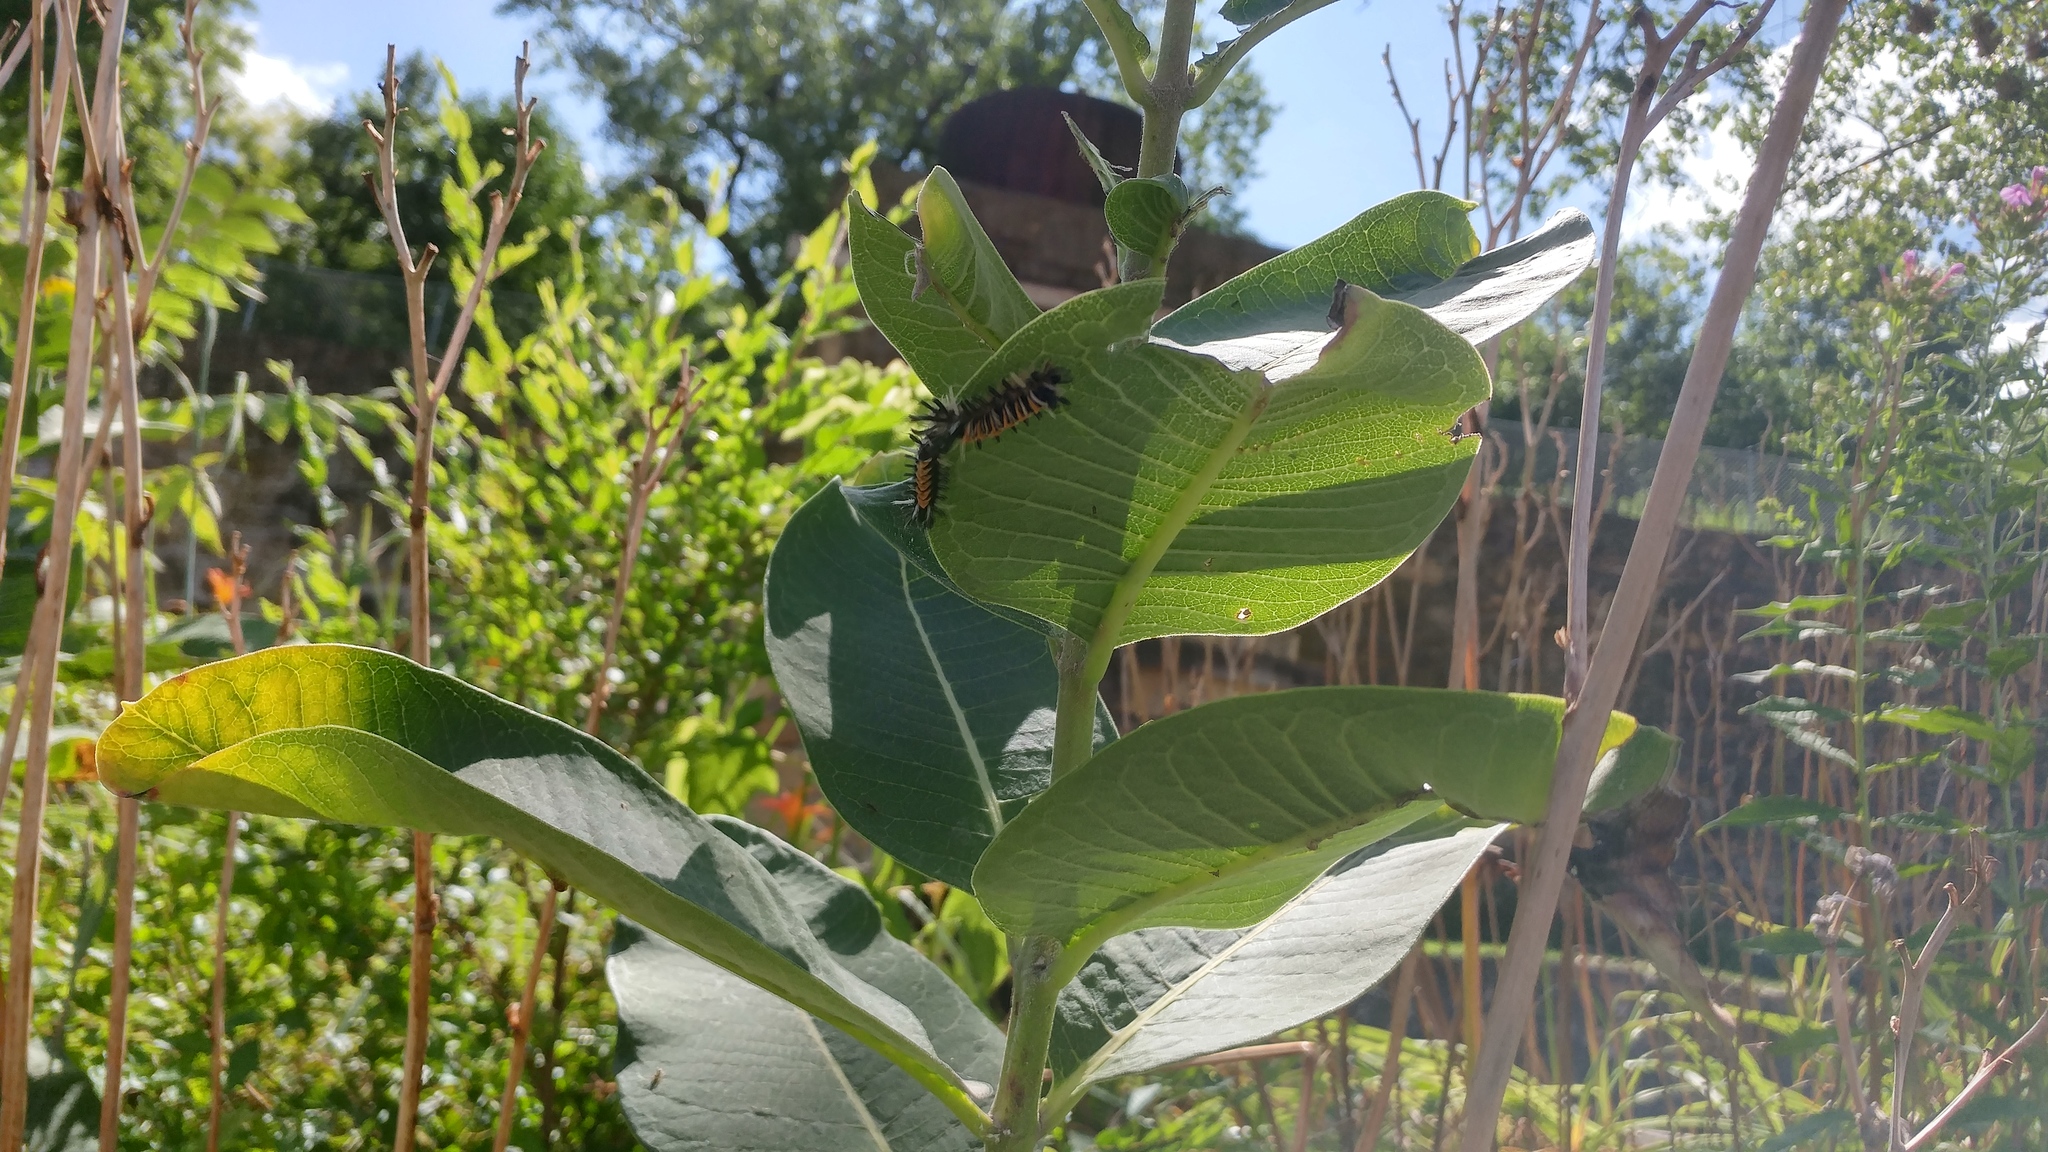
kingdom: Animalia
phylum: Arthropoda
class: Insecta
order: Lepidoptera
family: Erebidae
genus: Euchaetes
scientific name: Euchaetes egle
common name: Milkweed tussock moth
